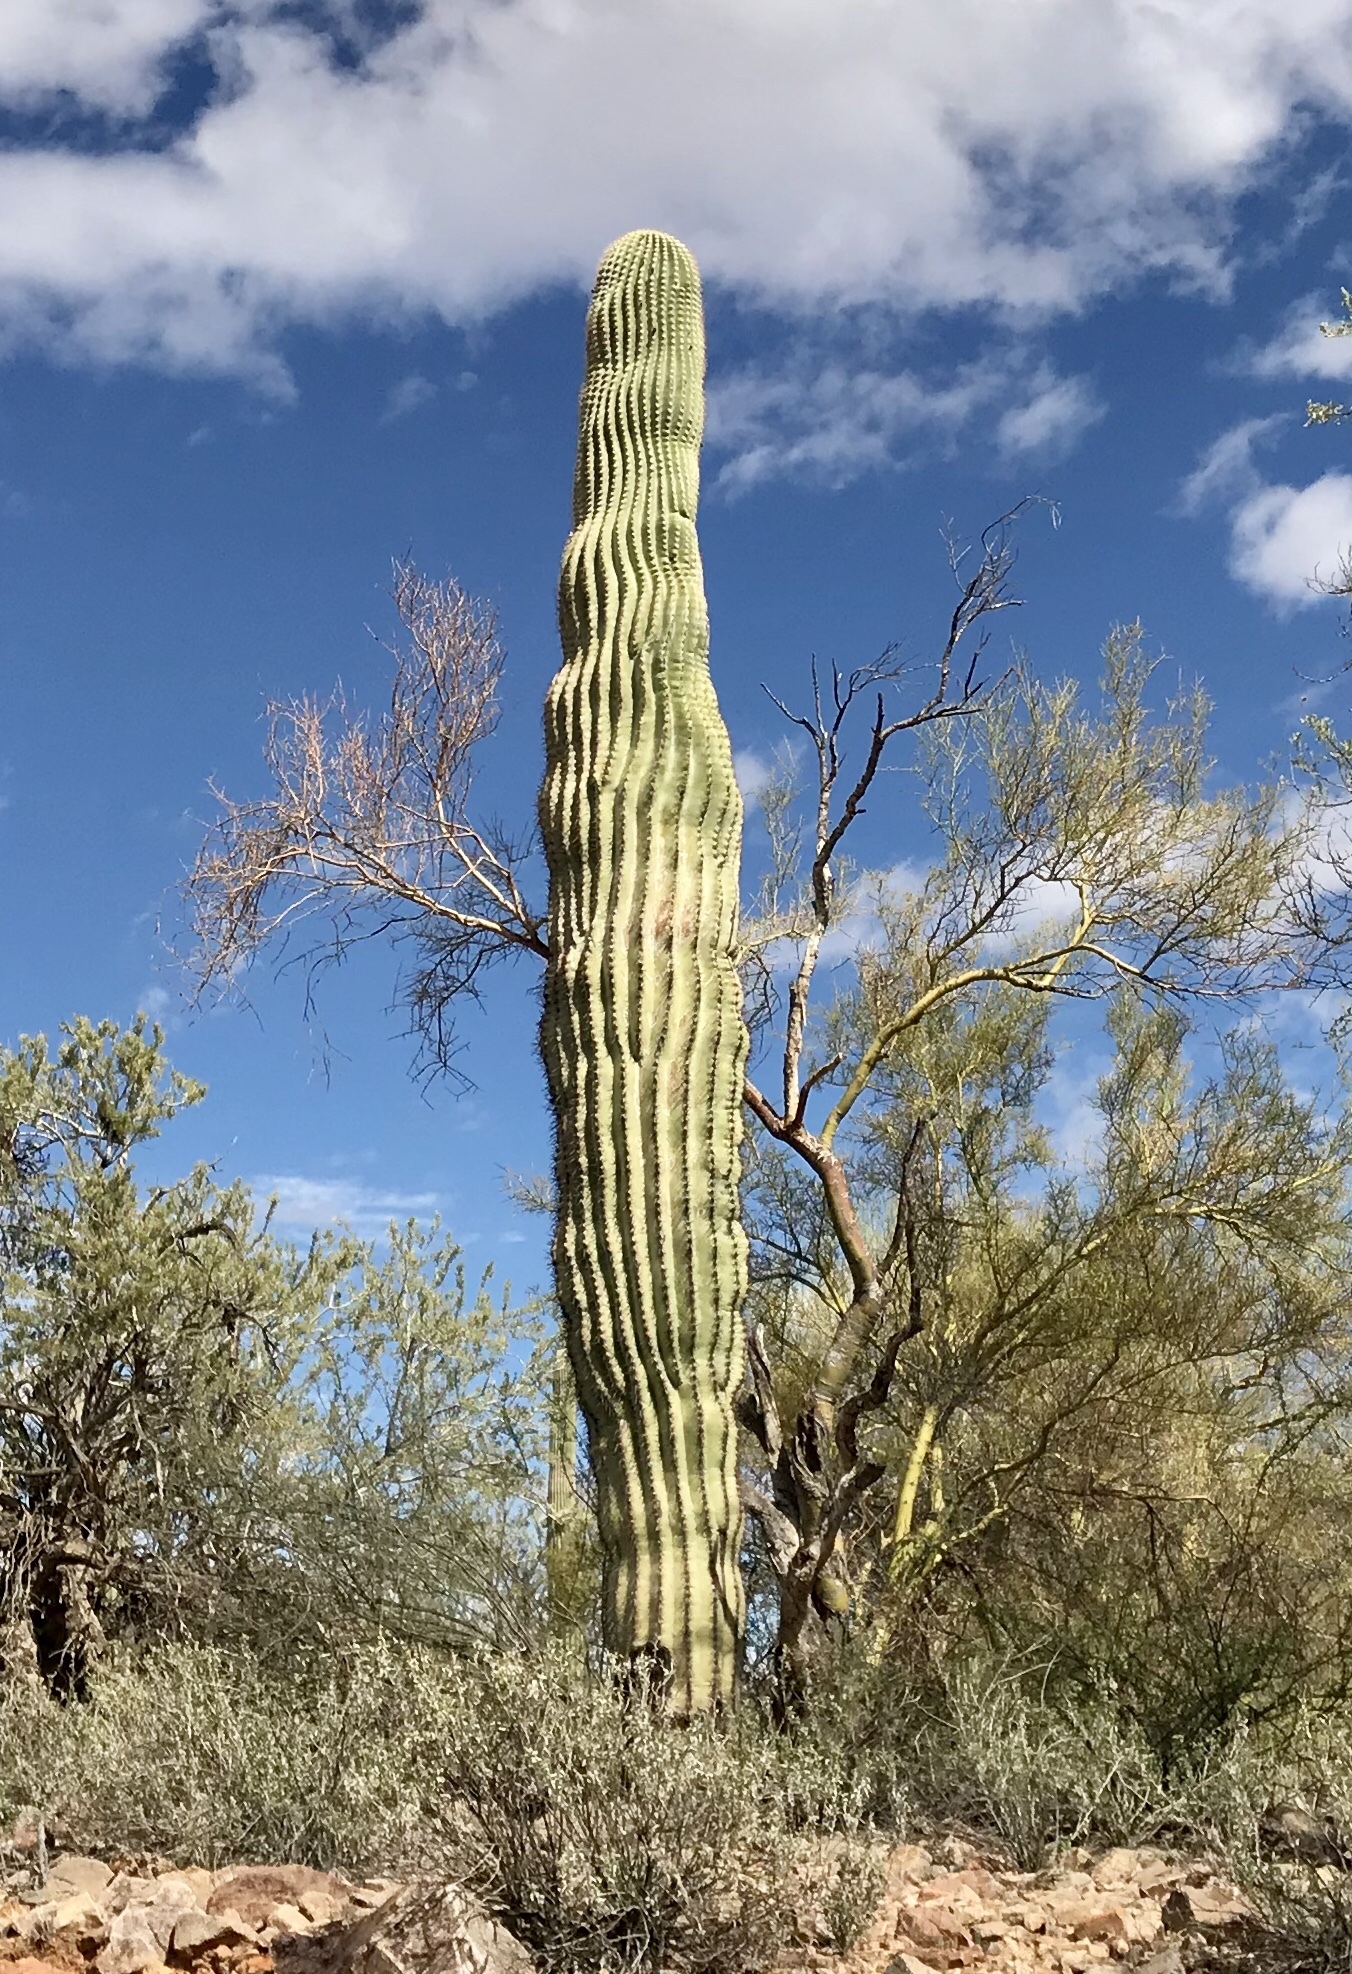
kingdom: Plantae
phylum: Tracheophyta
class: Magnoliopsida
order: Caryophyllales
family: Cactaceae
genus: Carnegiea
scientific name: Carnegiea gigantea
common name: Saguaro
